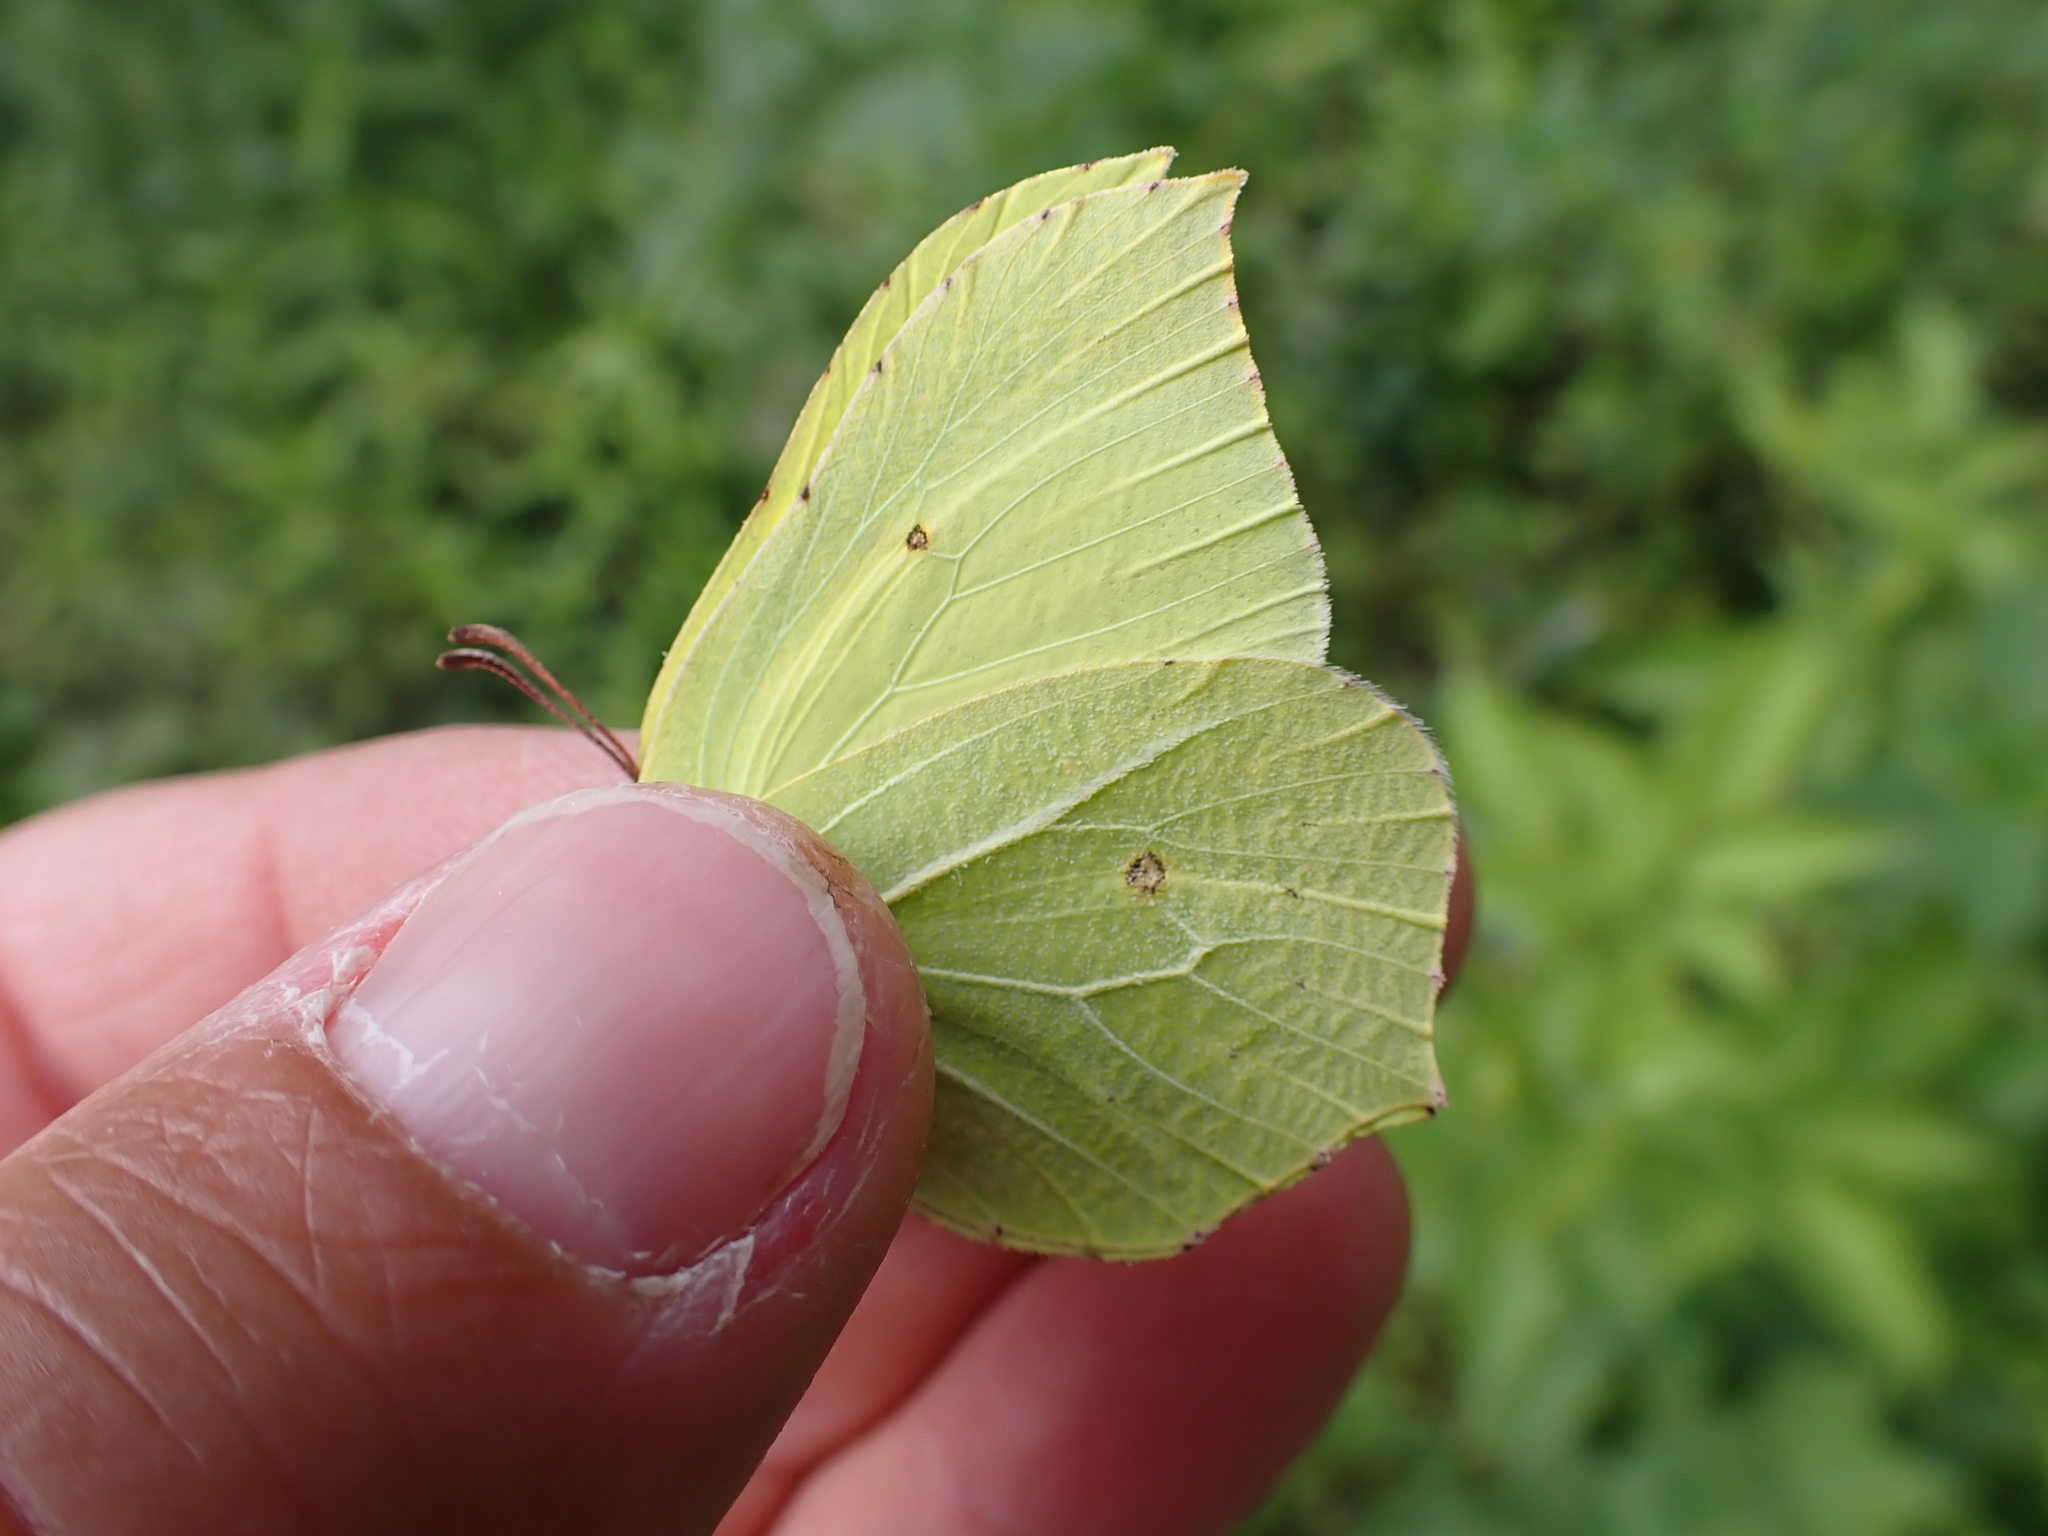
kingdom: Animalia
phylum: Arthropoda
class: Insecta
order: Lepidoptera
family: Pieridae
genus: Gonepteryx
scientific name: Gonepteryx rhamni
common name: Brimstone
